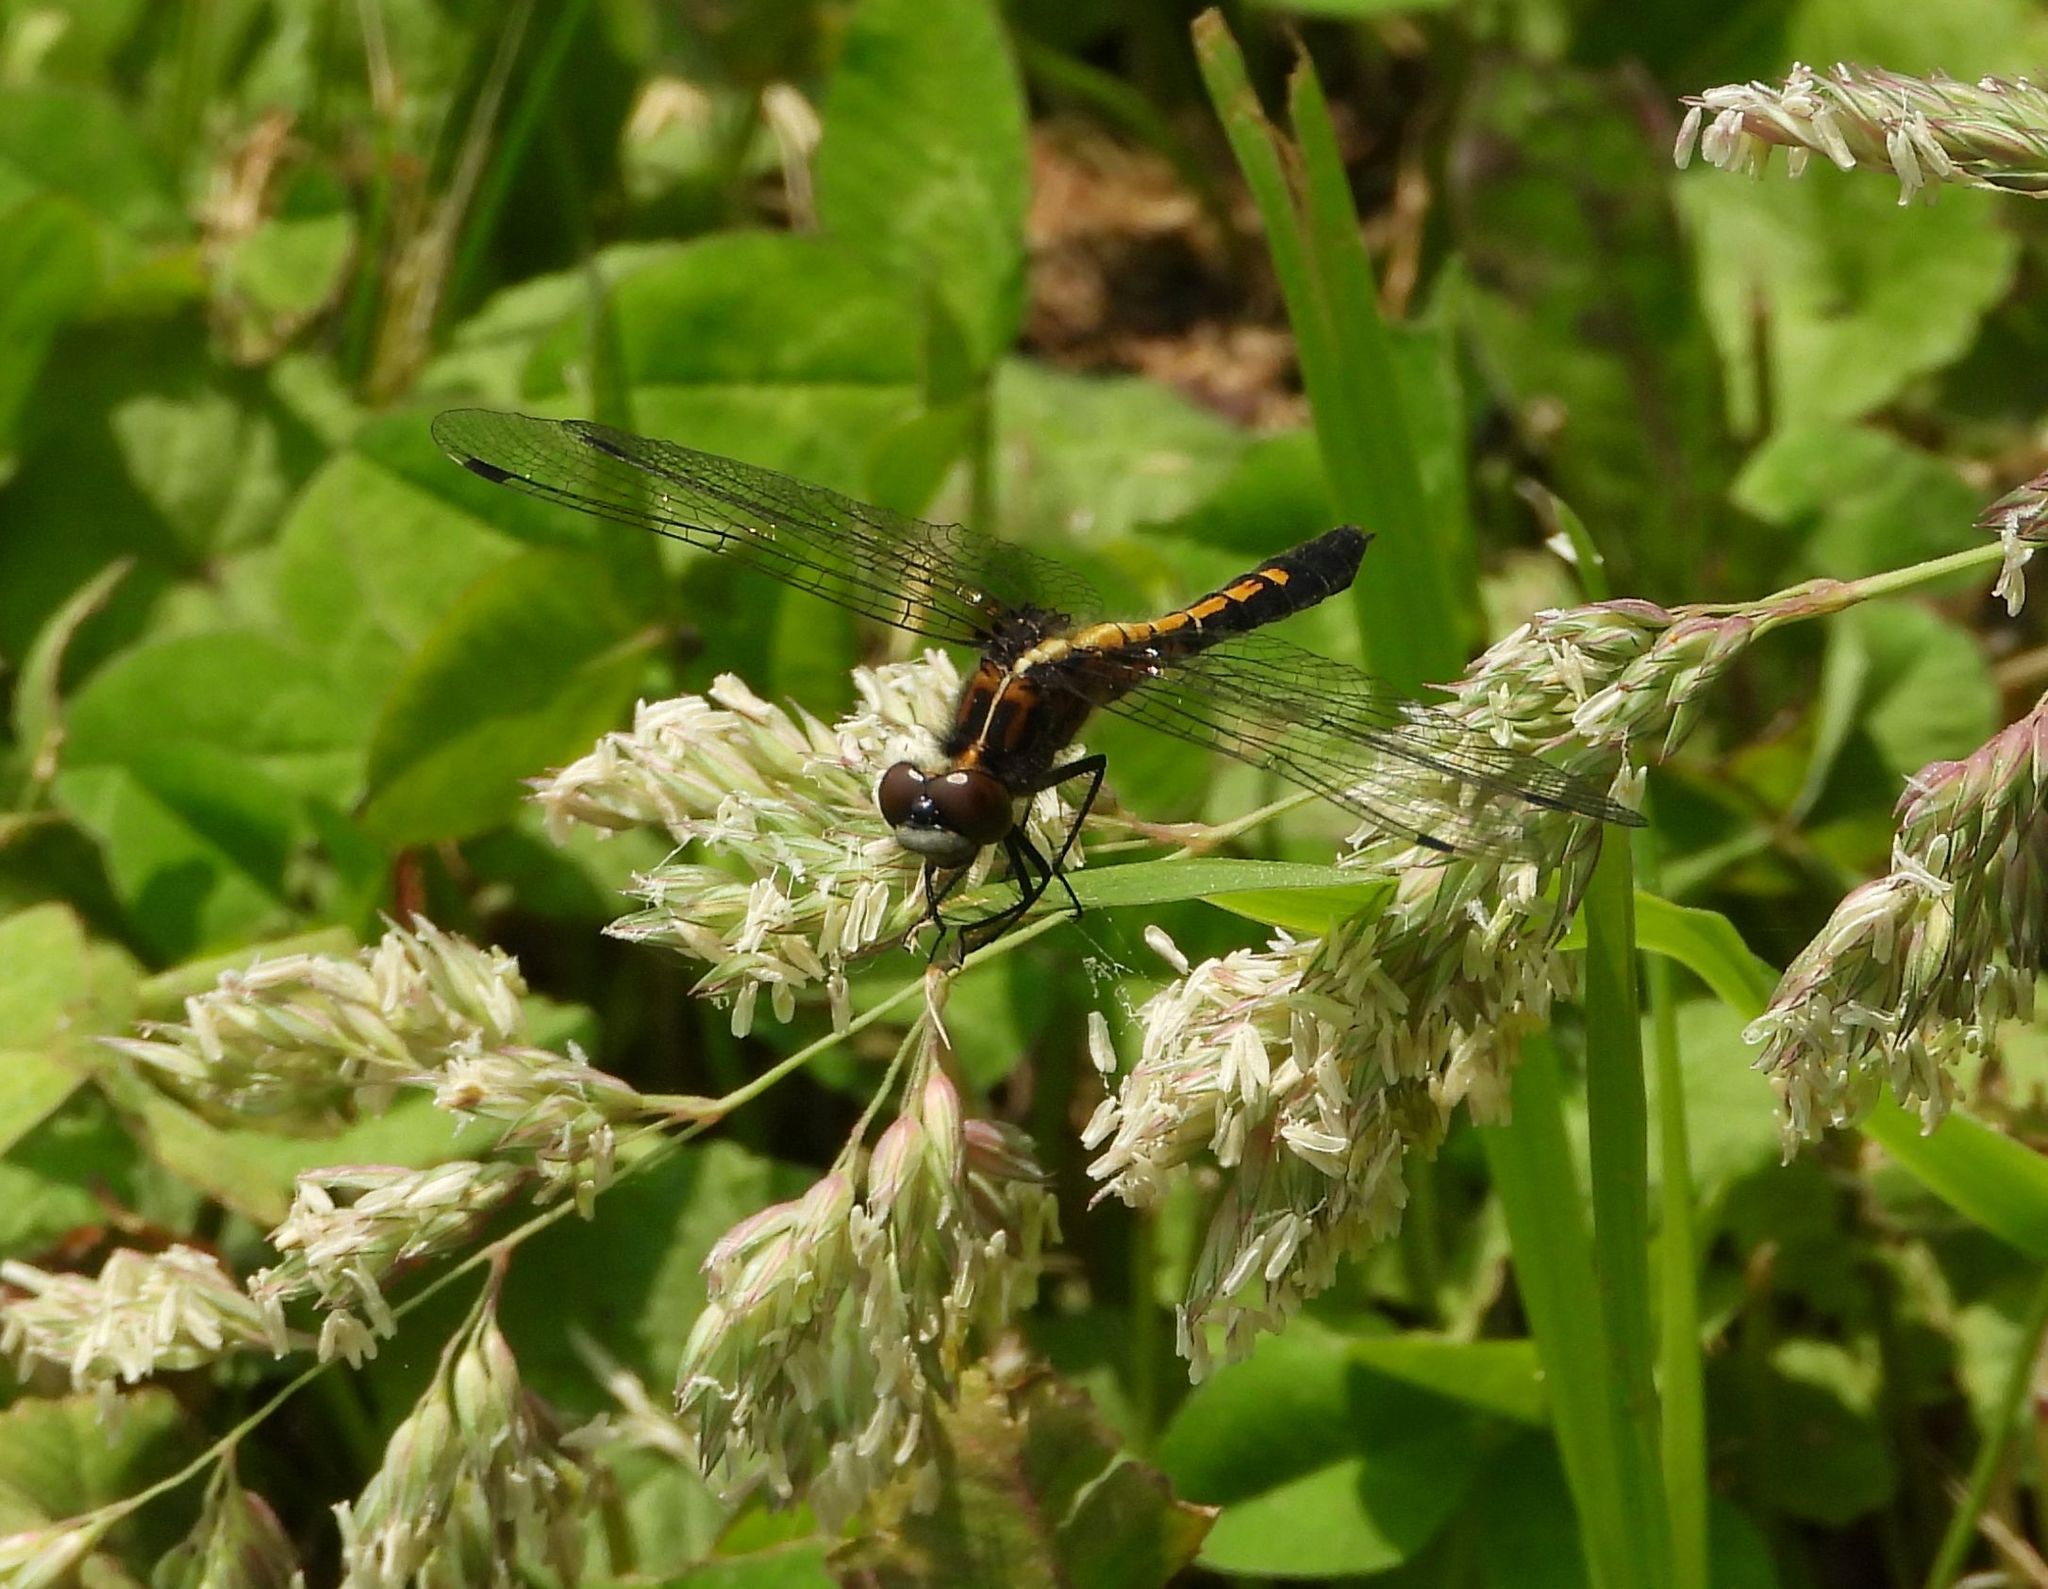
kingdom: Animalia
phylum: Arthropoda
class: Insecta
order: Odonata
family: Libellulidae
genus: Leucorrhinia
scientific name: Leucorrhinia intacta
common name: Dot-tailed whiteface
